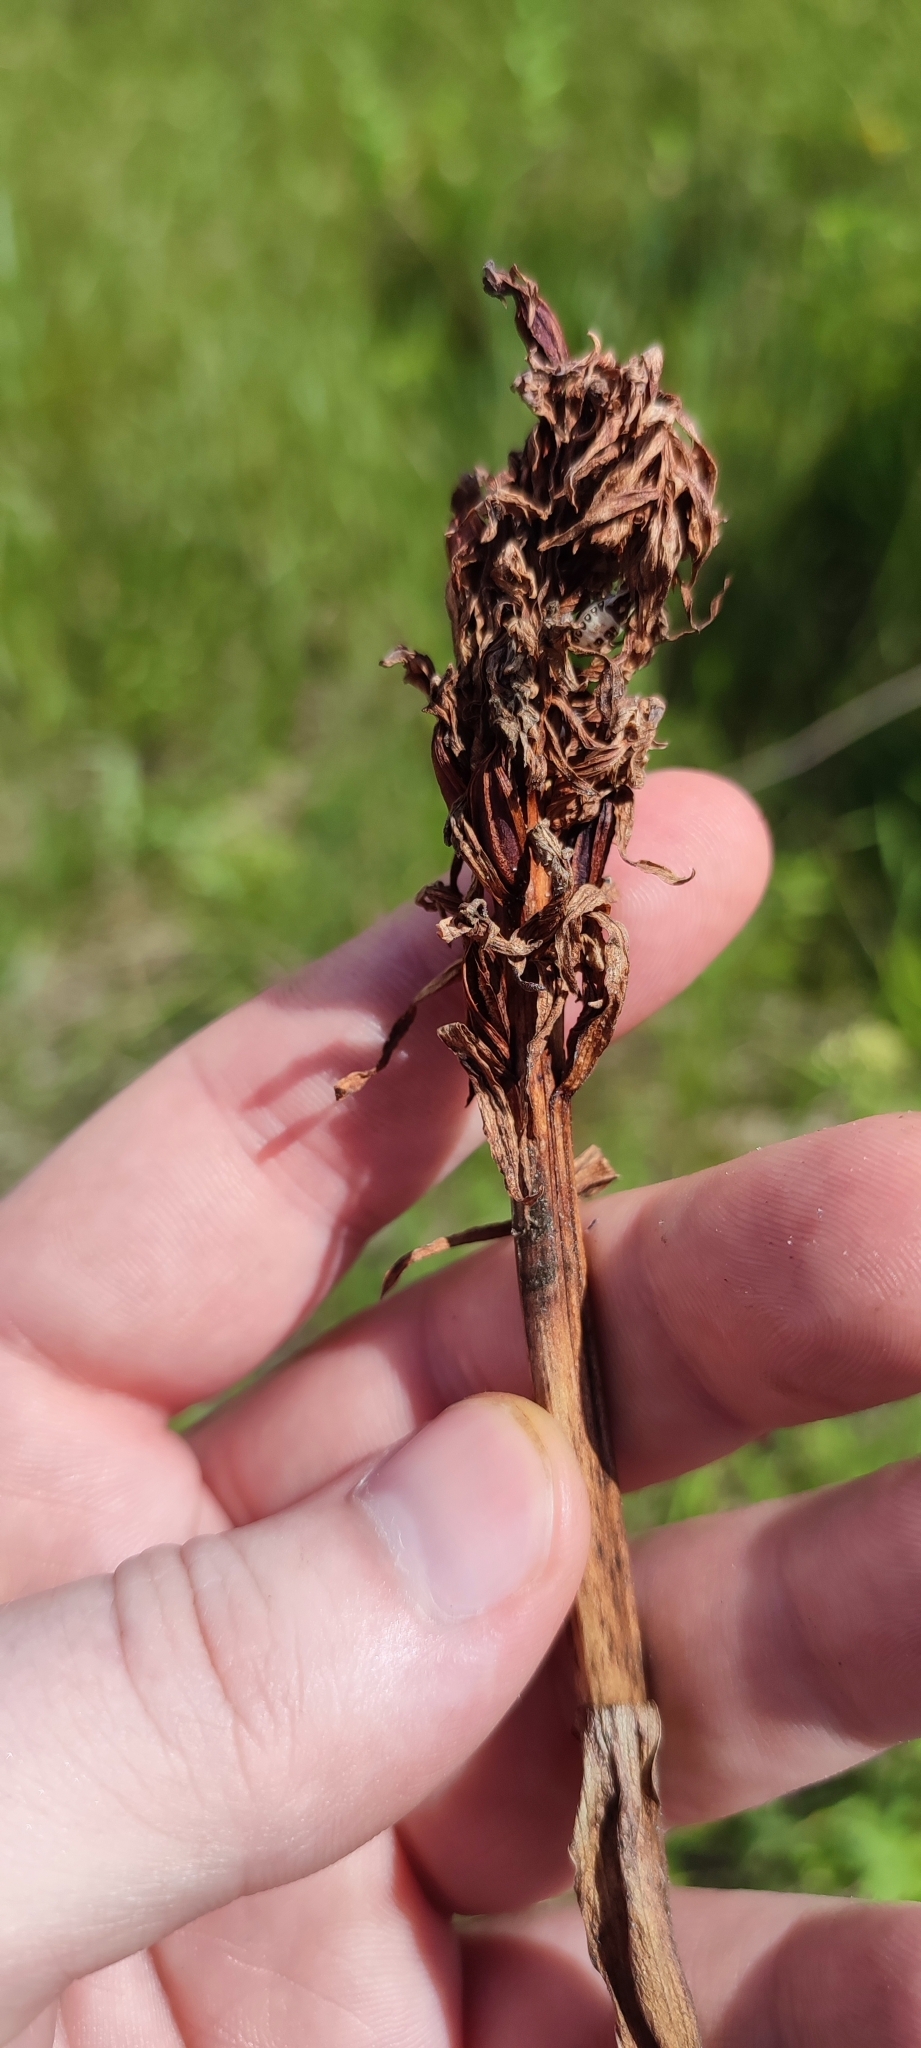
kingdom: Plantae
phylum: Tracheophyta
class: Liliopsida
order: Asparagales
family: Orchidaceae
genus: Dactylorhiza
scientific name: Dactylorhiza incarnata
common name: Early marsh-orchid
